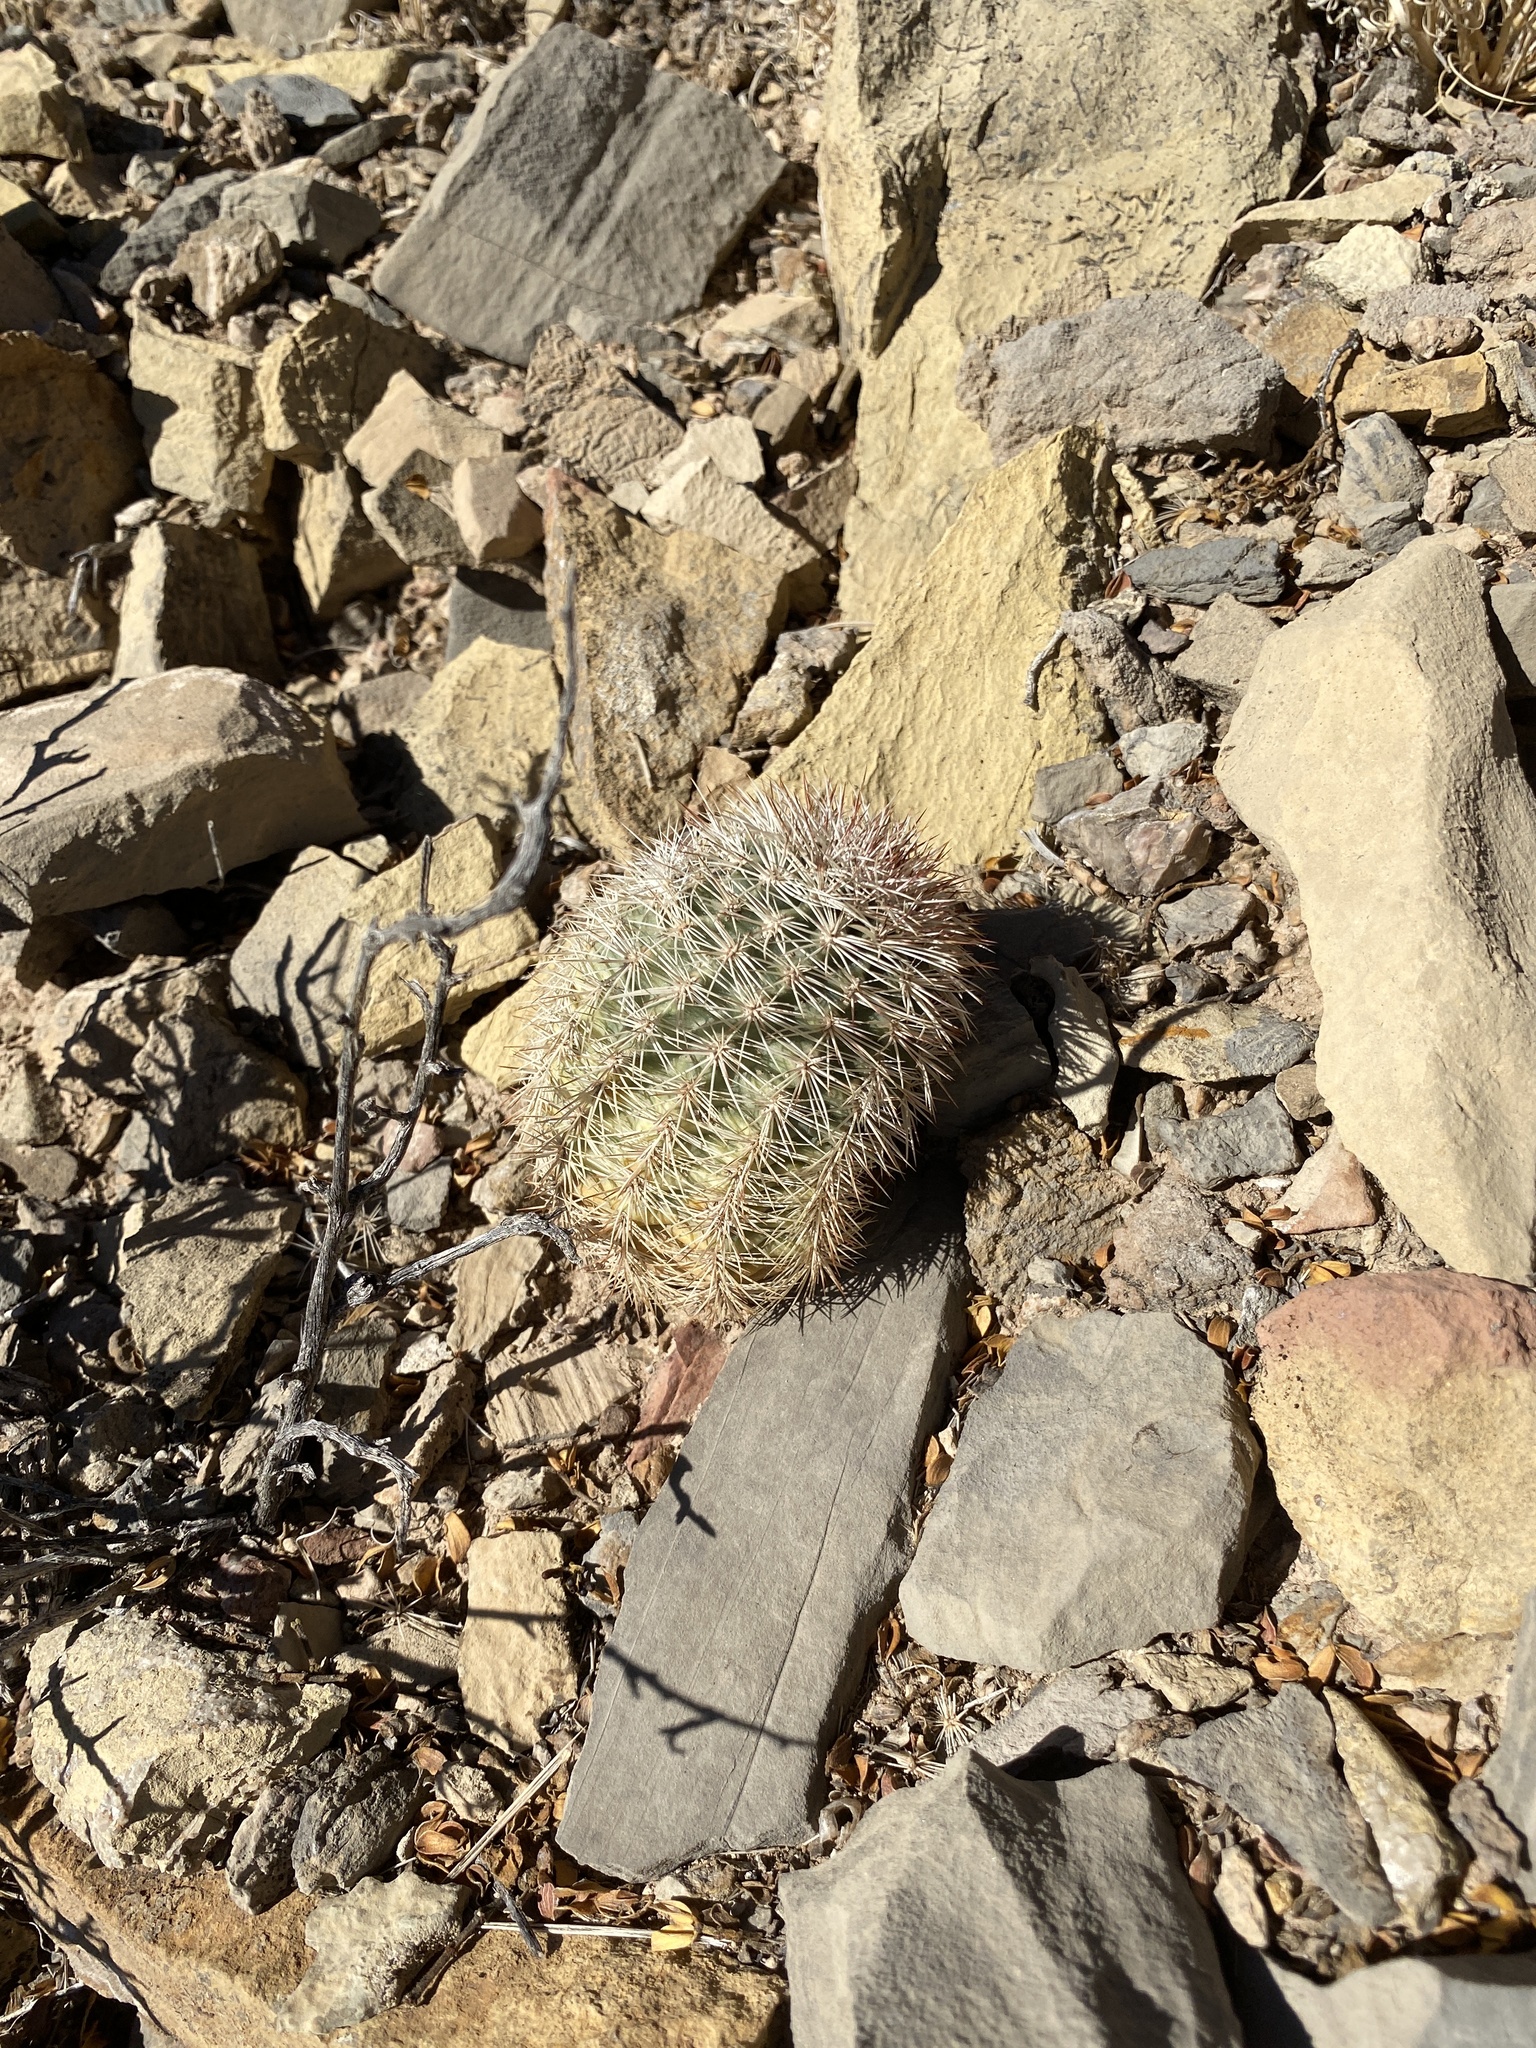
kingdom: Plantae
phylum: Tracheophyta
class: Magnoliopsida
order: Caryophyllales
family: Cactaceae
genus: Echinocereus
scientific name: Echinocereus dasyacanthus
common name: Spiny hedgehog cactus
